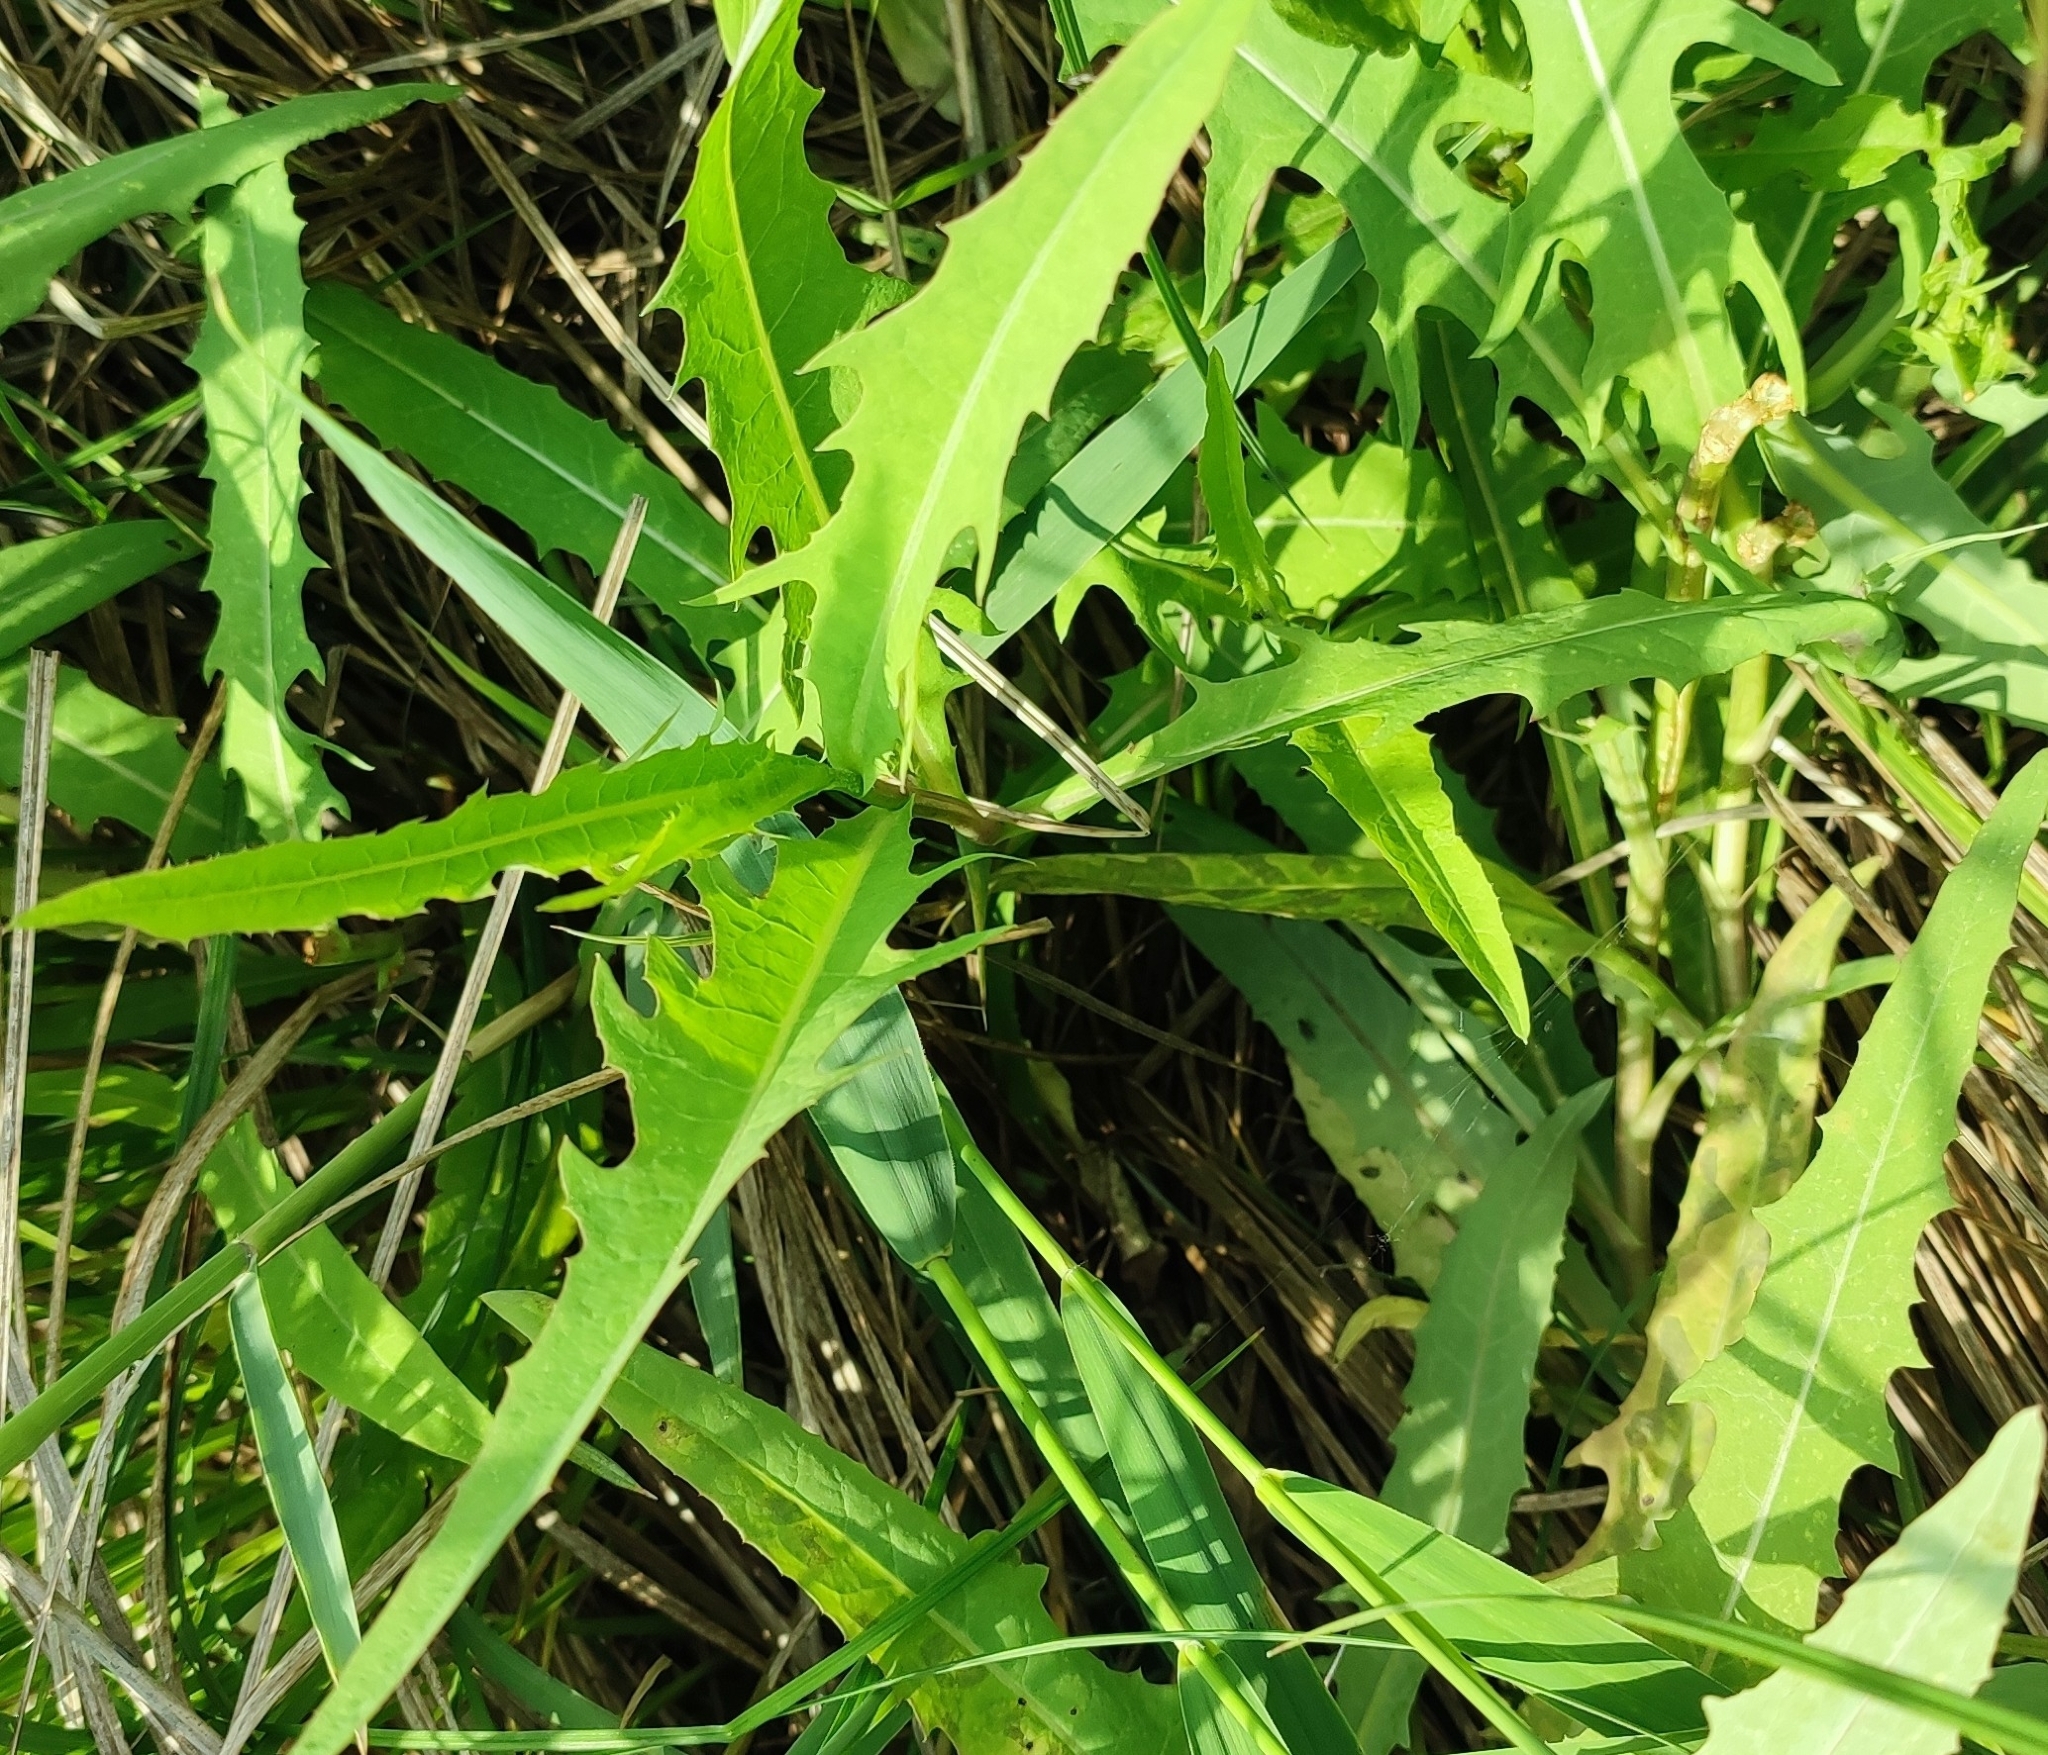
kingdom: Plantae
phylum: Tracheophyta
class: Magnoliopsida
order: Asterales
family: Asteraceae
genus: Lactuca
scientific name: Lactuca tatarica
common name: Blue lettuce
